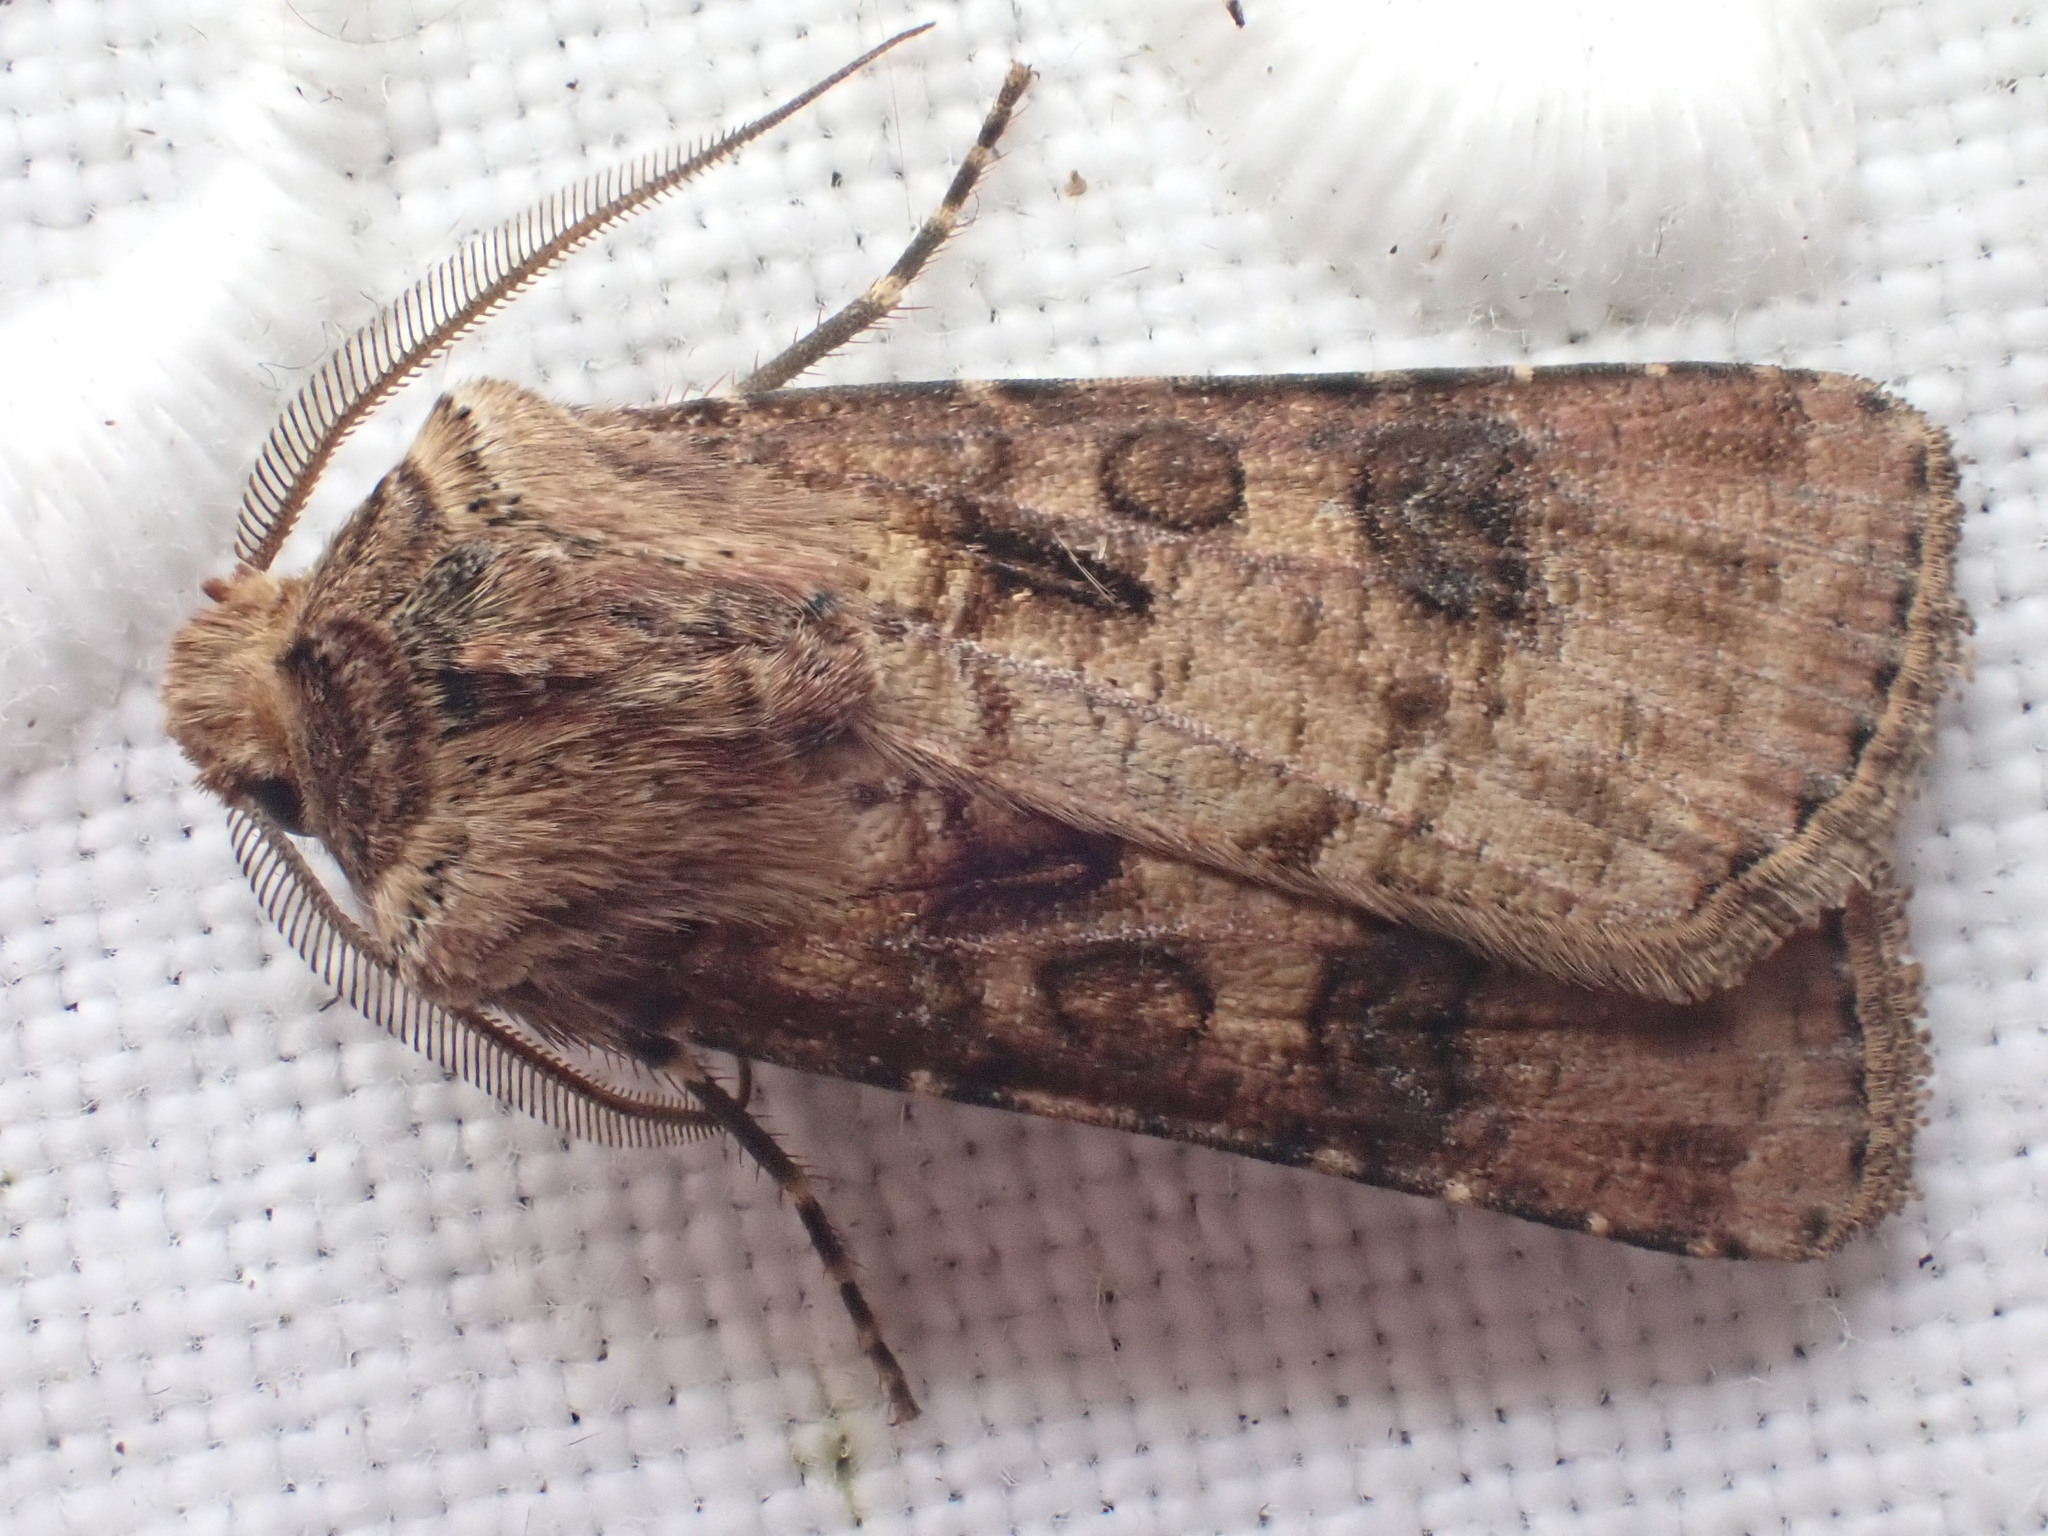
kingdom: Animalia
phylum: Arthropoda
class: Insecta
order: Lepidoptera
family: Noctuidae
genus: Agrotis
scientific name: Agrotis clavis
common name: Heart and club
